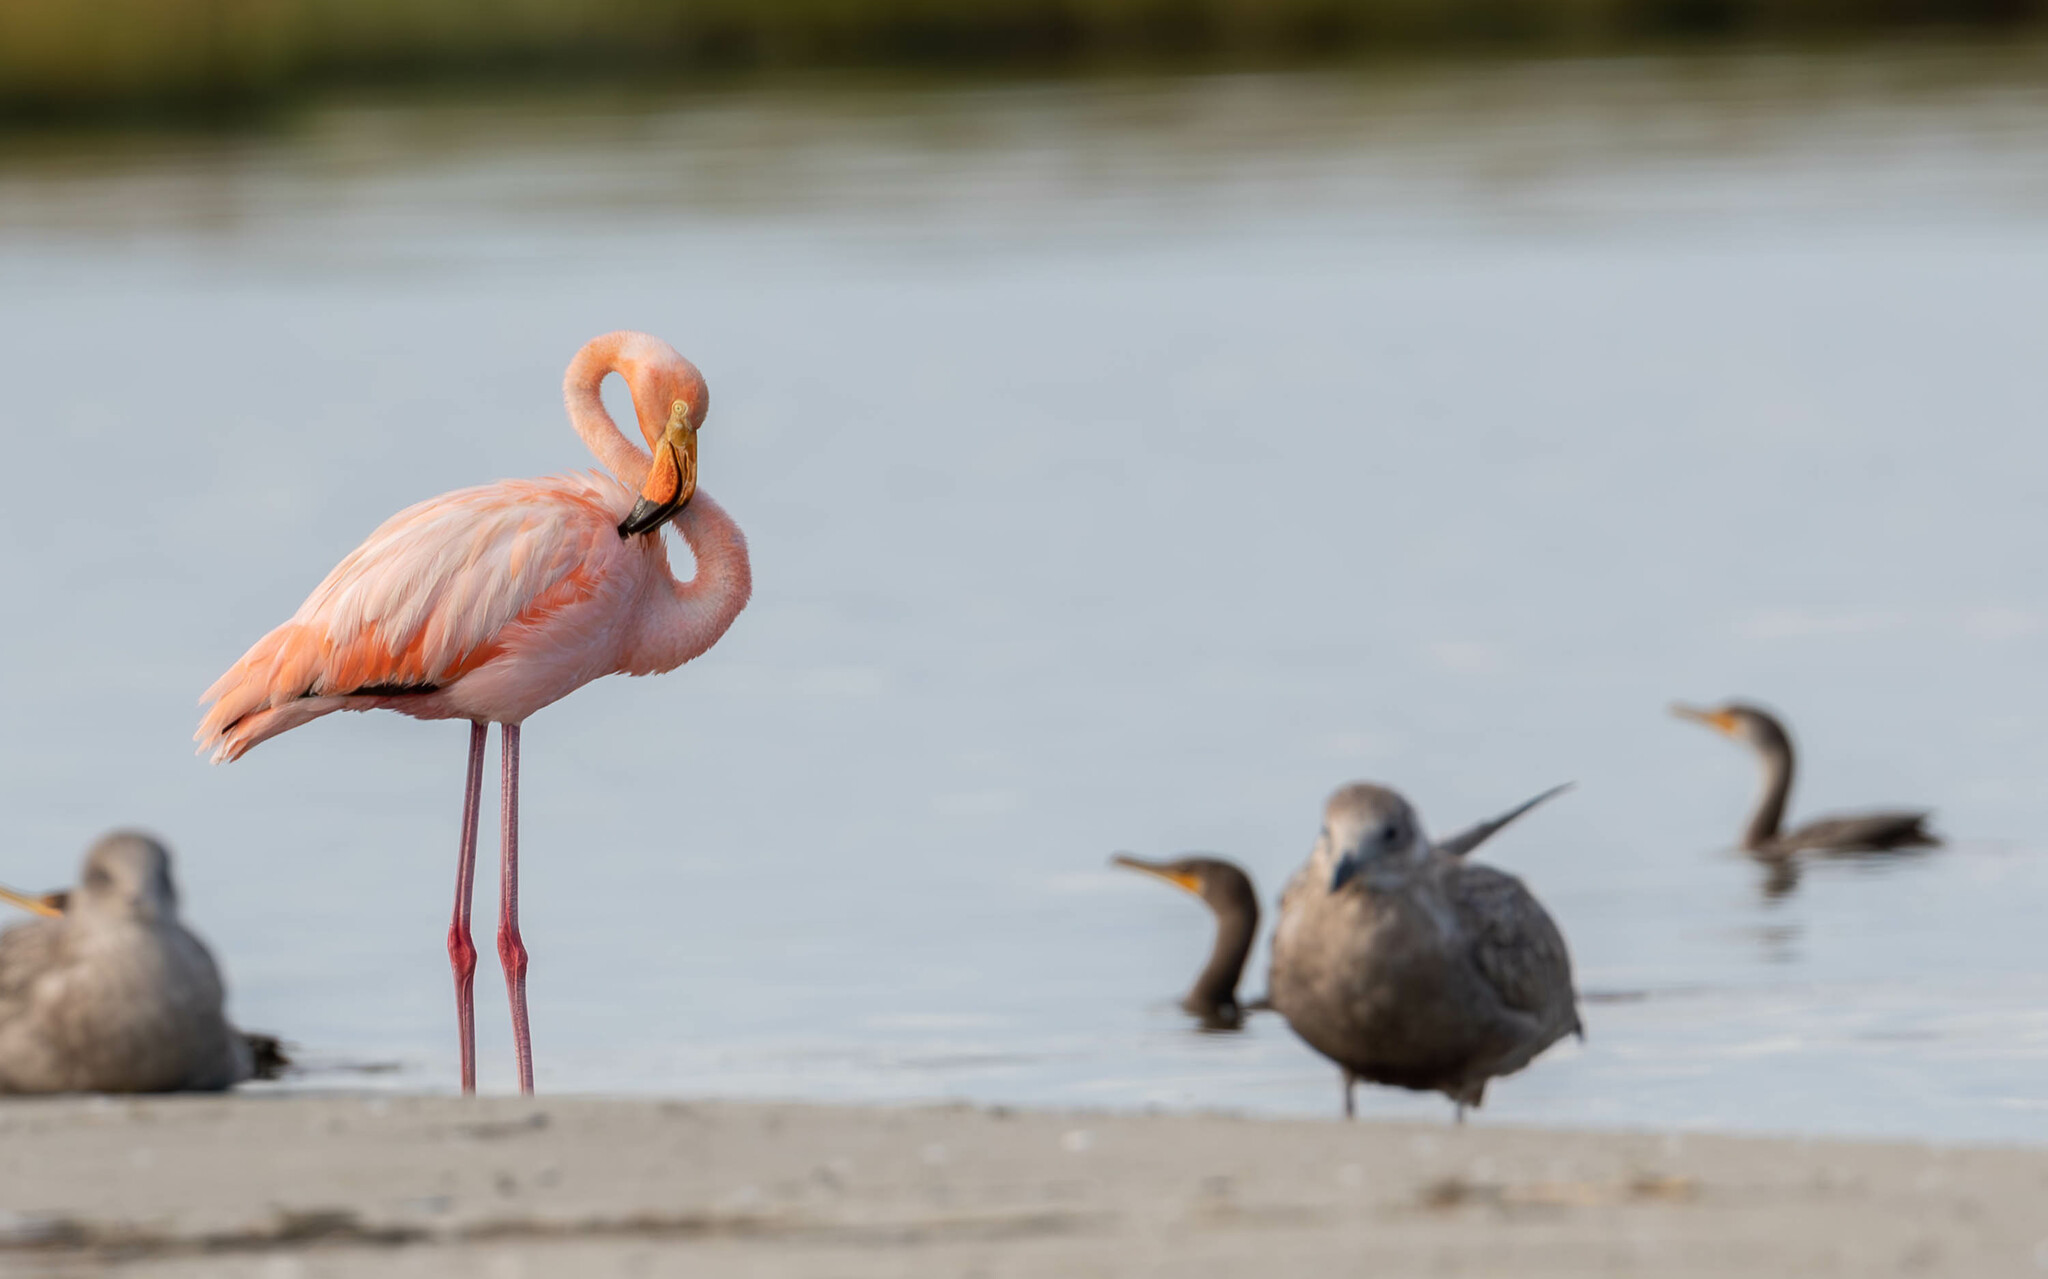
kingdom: Animalia
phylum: Chordata
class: Aves
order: Phoenicopteriformes
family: Phoenicopteridae
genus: Phoenicopterus
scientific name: Phoenicopterus ruber
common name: American flamingo
